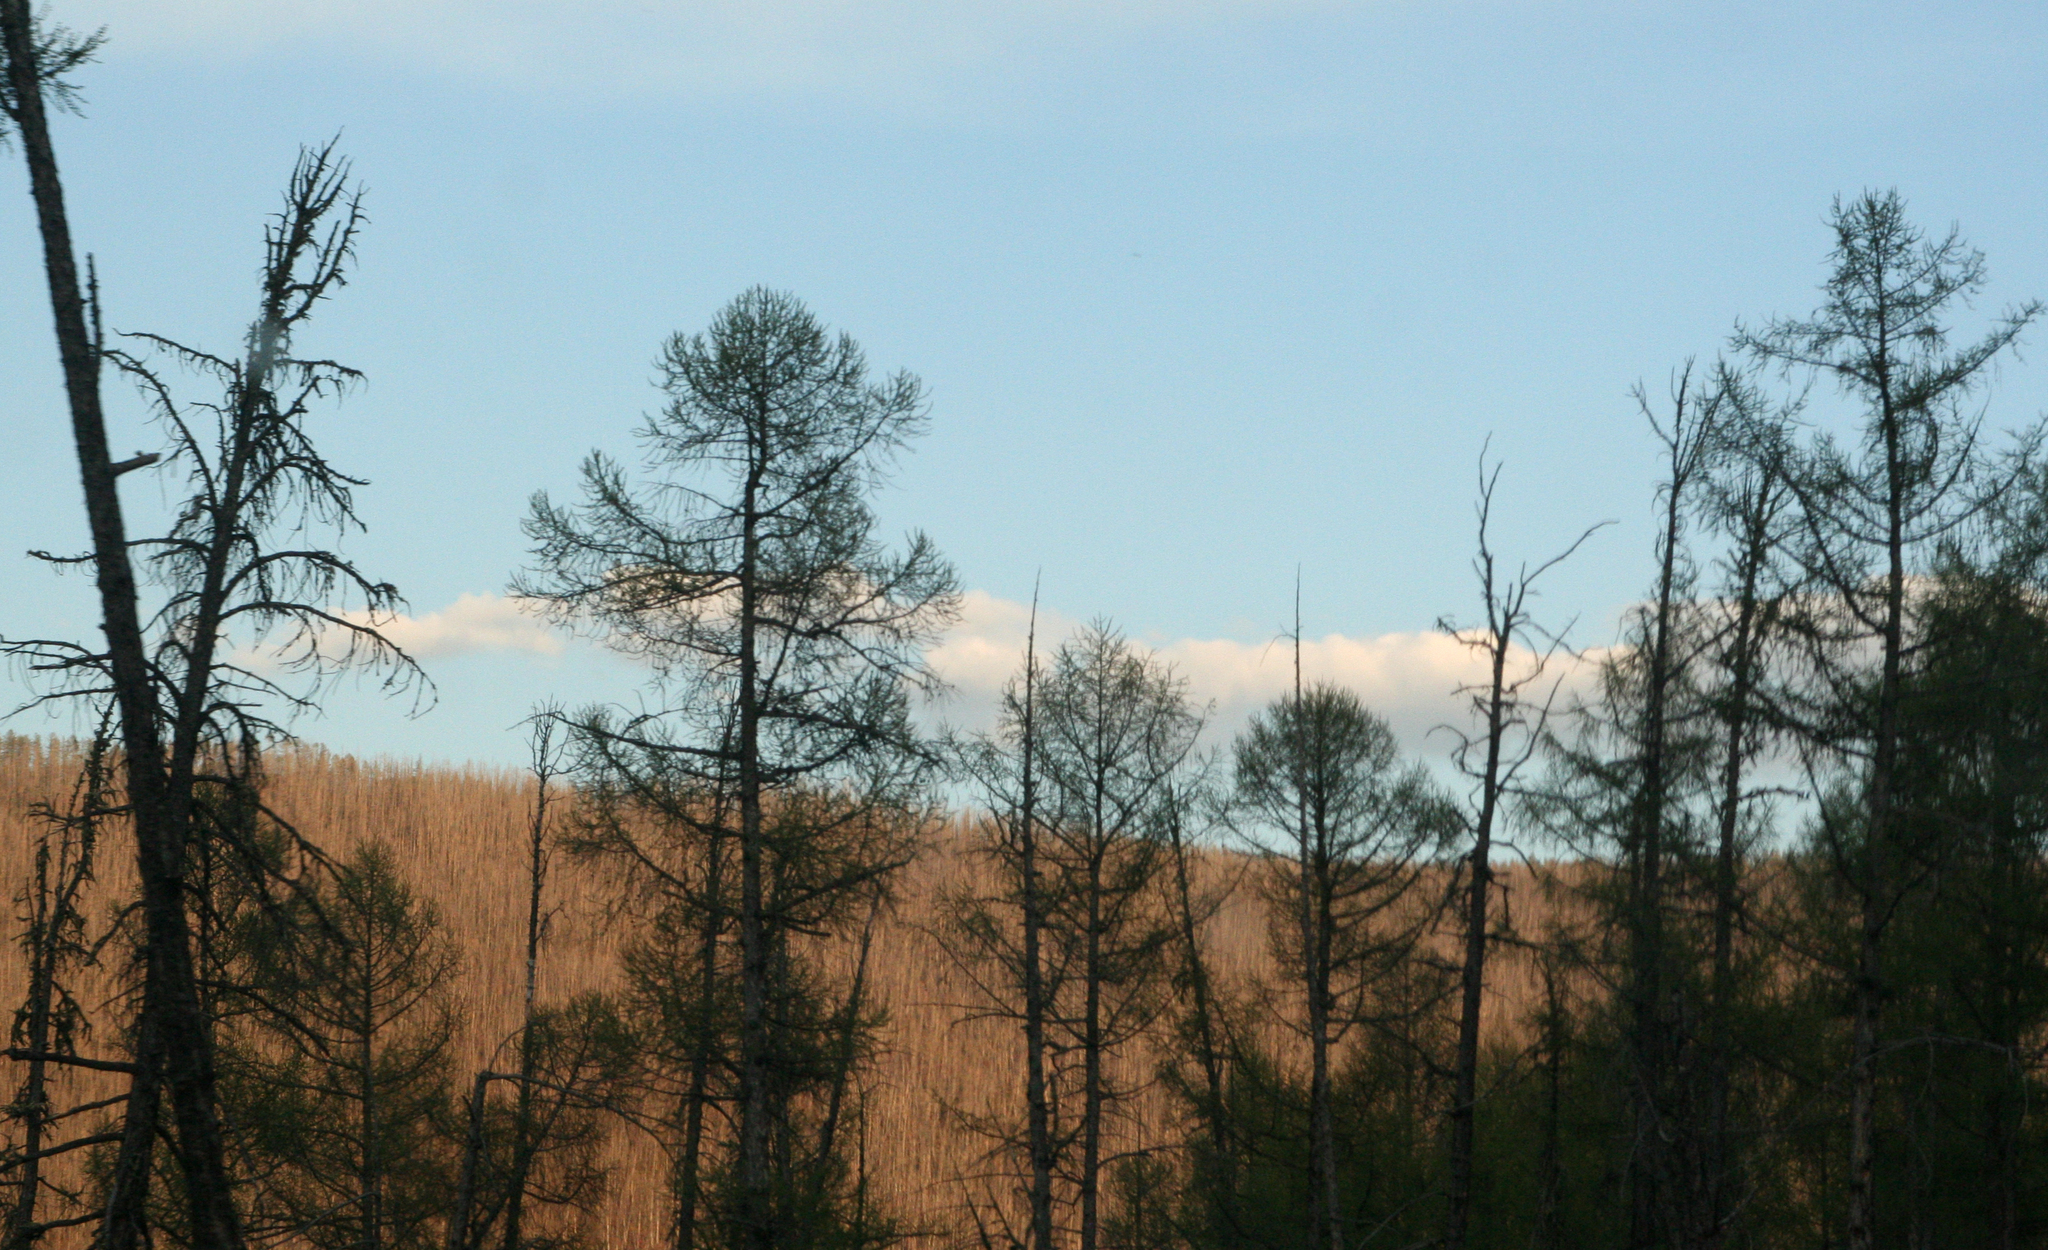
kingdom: Plantae
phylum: Tracheophyta
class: Pinopsida
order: Pinales
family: Pinaceae
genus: Larix
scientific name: Larix sibirica
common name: Siberian larch
